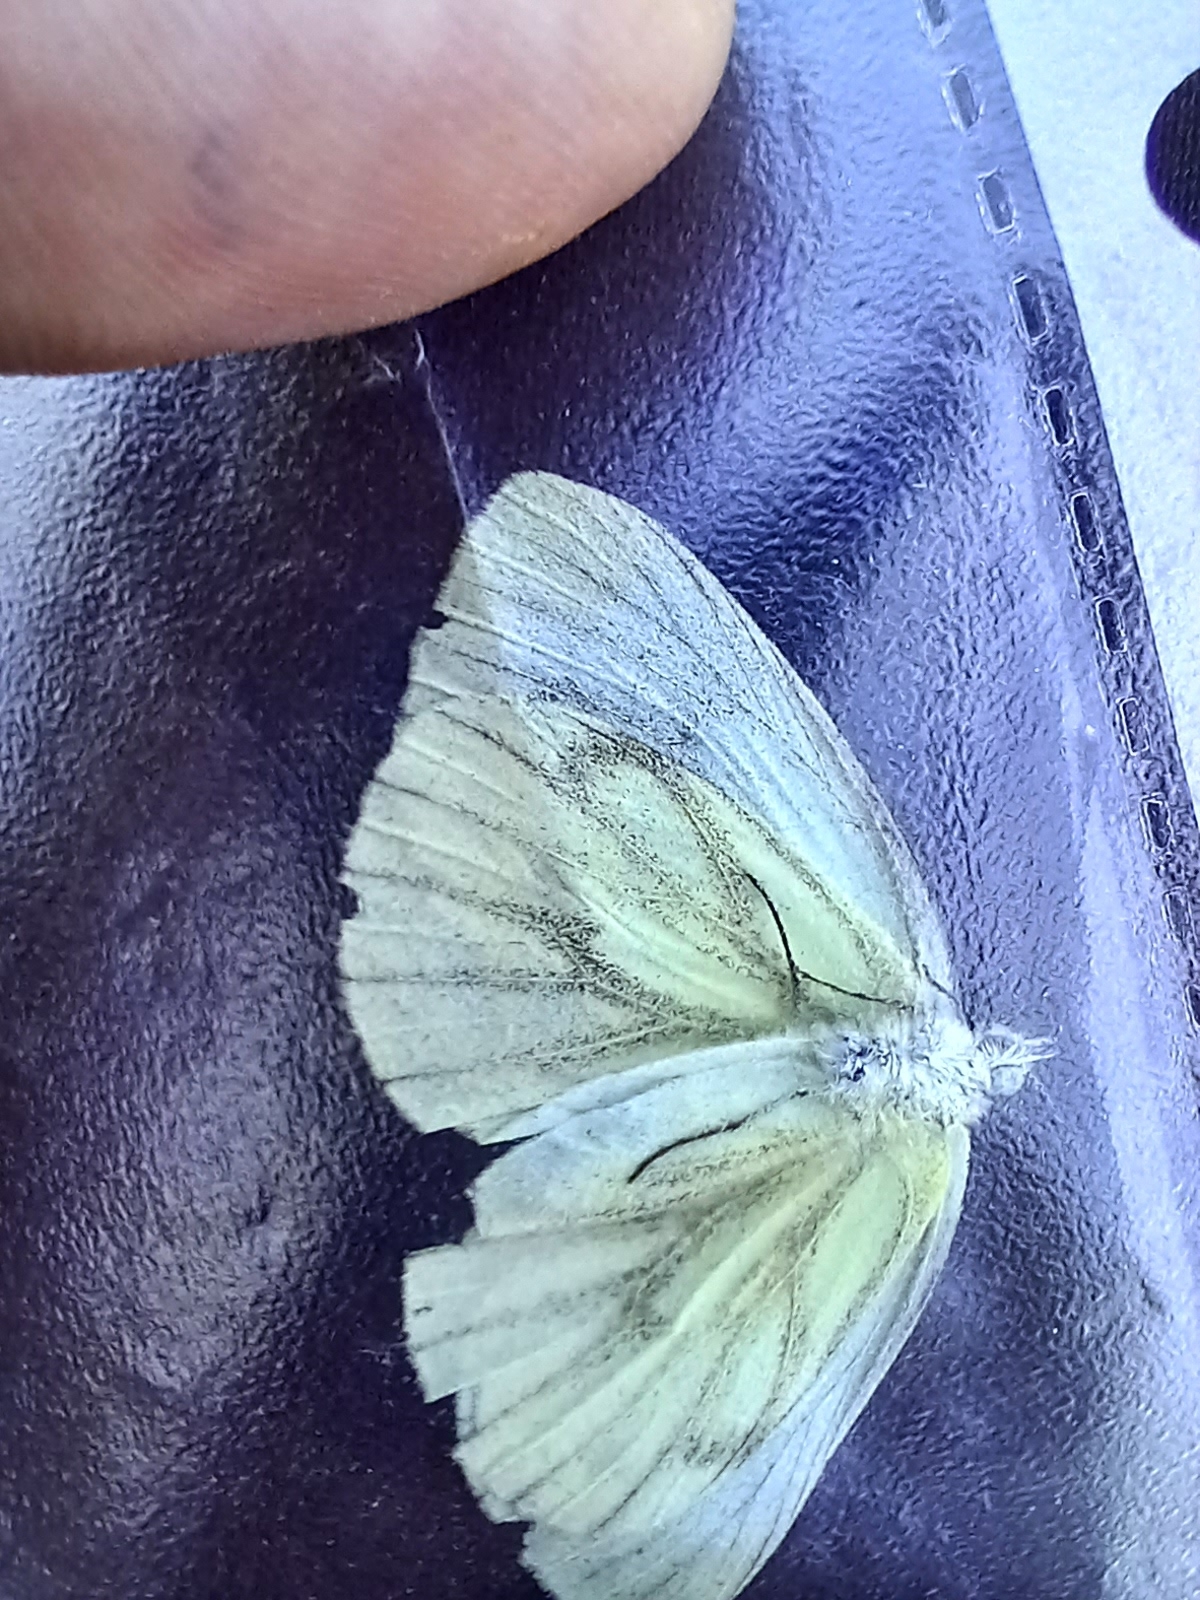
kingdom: Animalia
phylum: Arthropoda
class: Insecta
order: Lepidoptera
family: Pieridae
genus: Pieris
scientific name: Pieris napi
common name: Green-veined white
